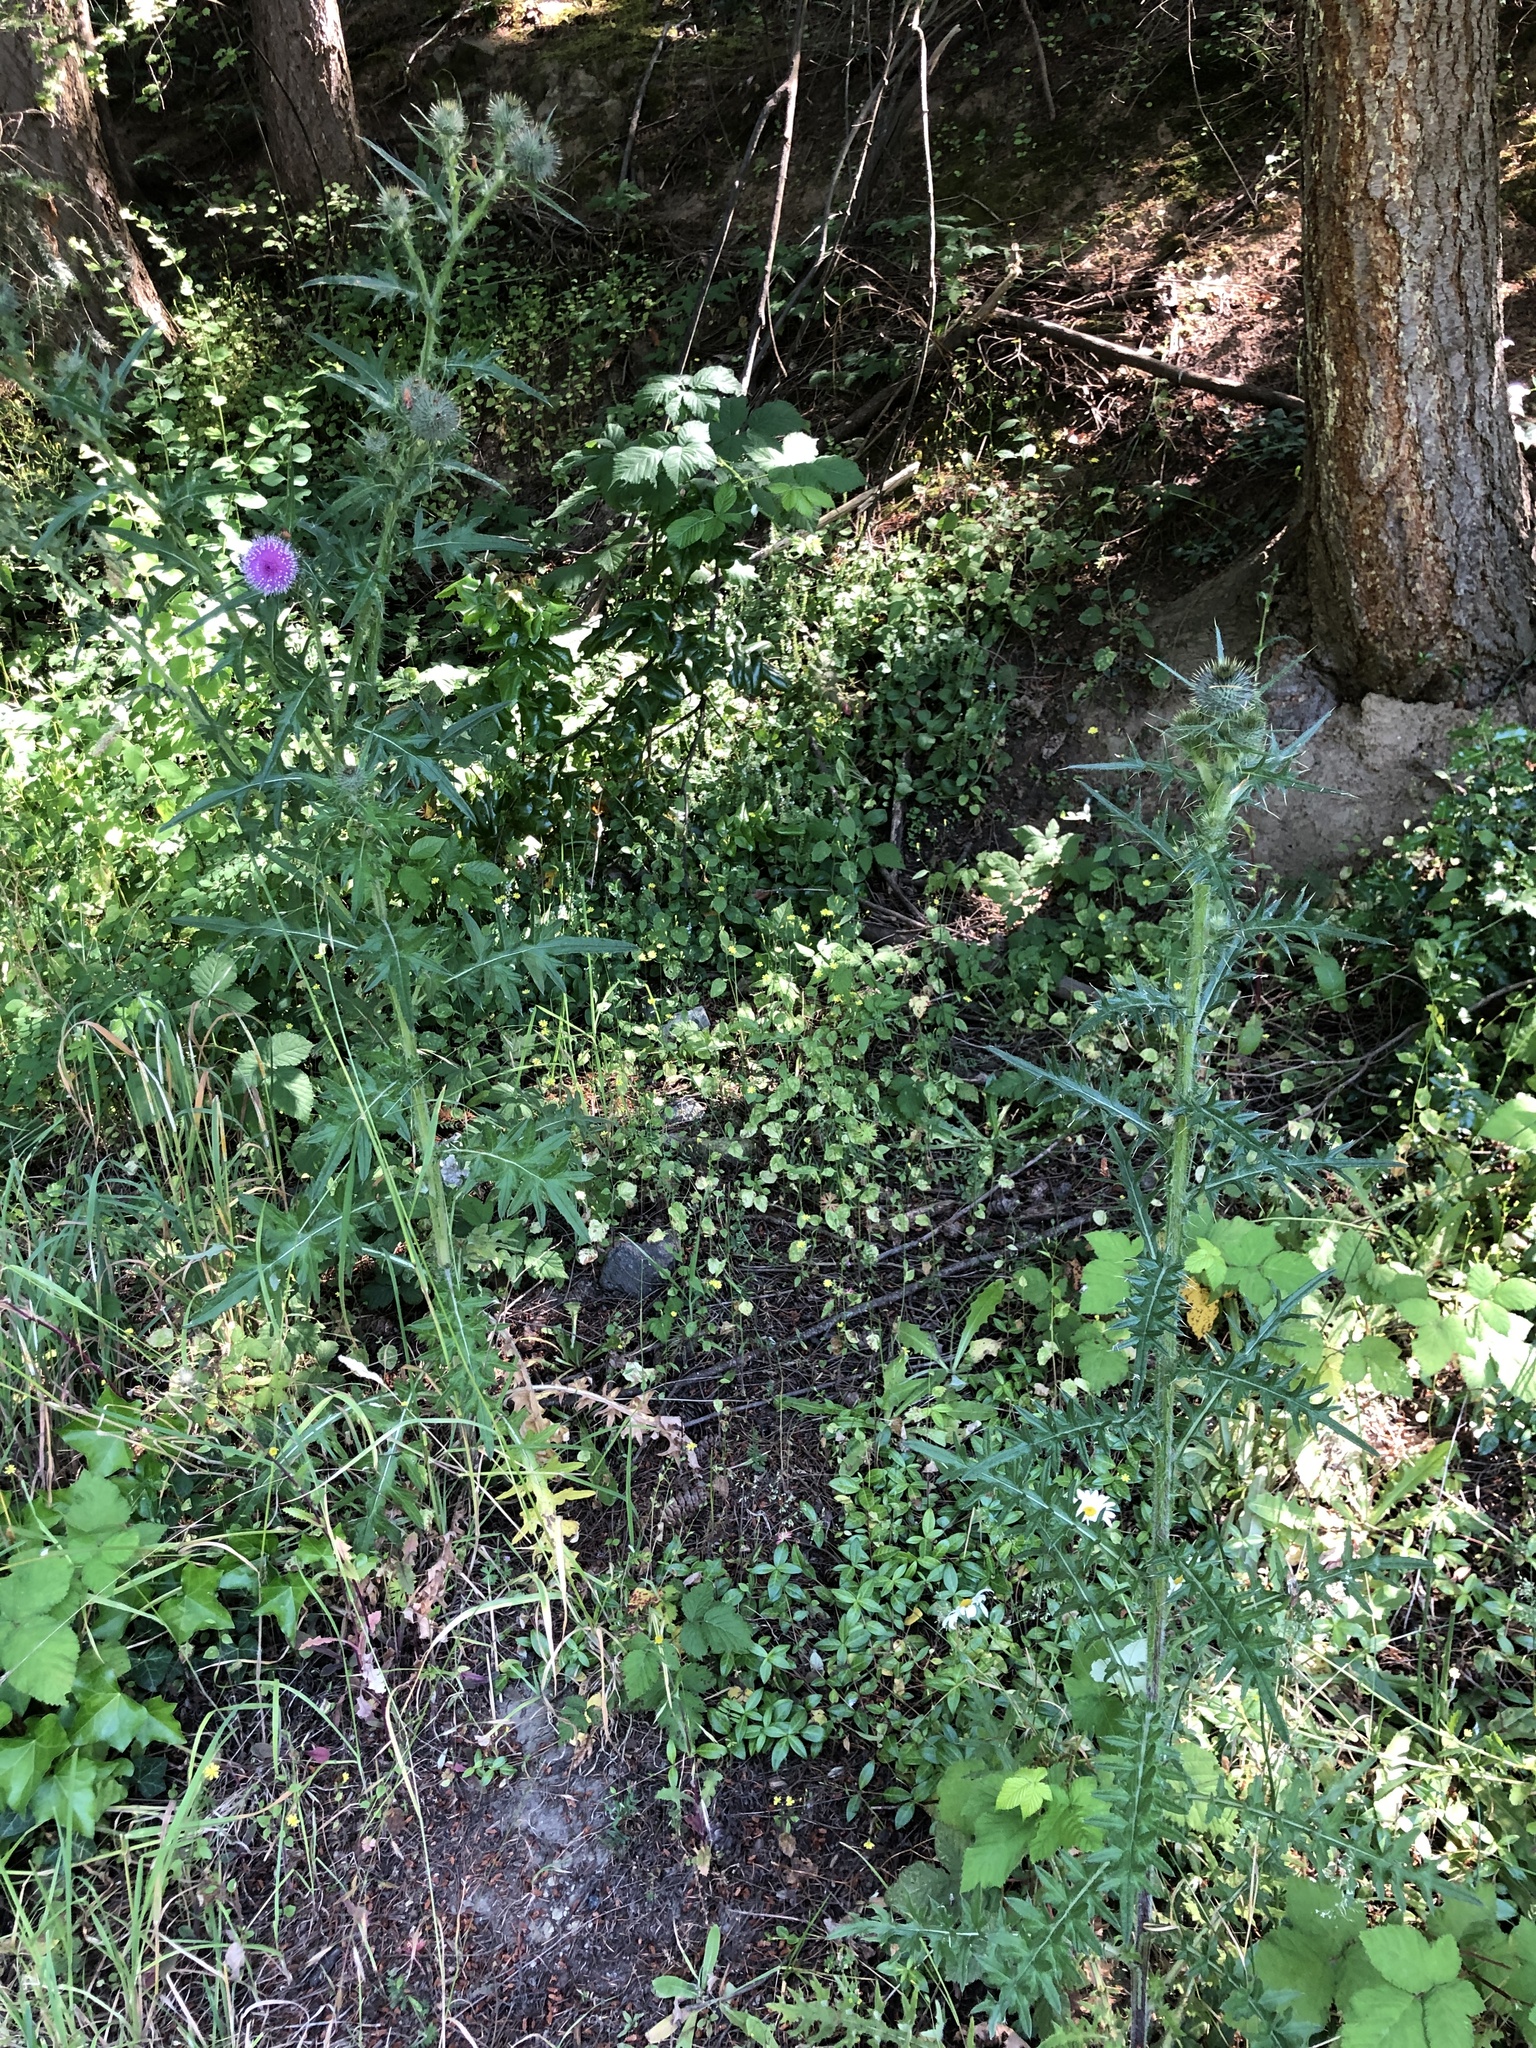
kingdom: Plantae
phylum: Tracheophyta
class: Magnoliopsida
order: Asterales
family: Asteraceae
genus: Cirsium
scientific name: Cirsium vulgare
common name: Bull thistle
